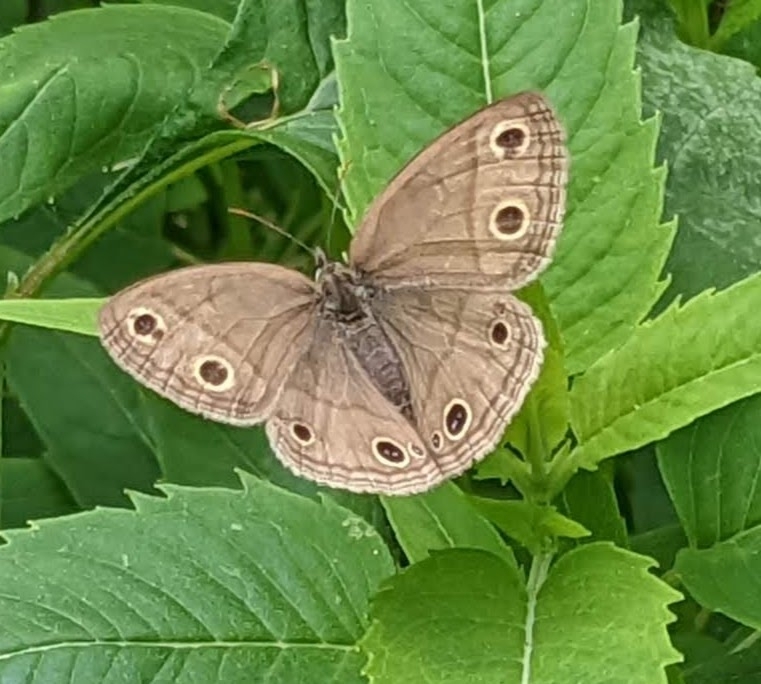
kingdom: Animalia
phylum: Arthropoda
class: Insecta
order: Lepidoptera
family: Nymphalidae
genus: Euptychia
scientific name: Euptychia cymela
